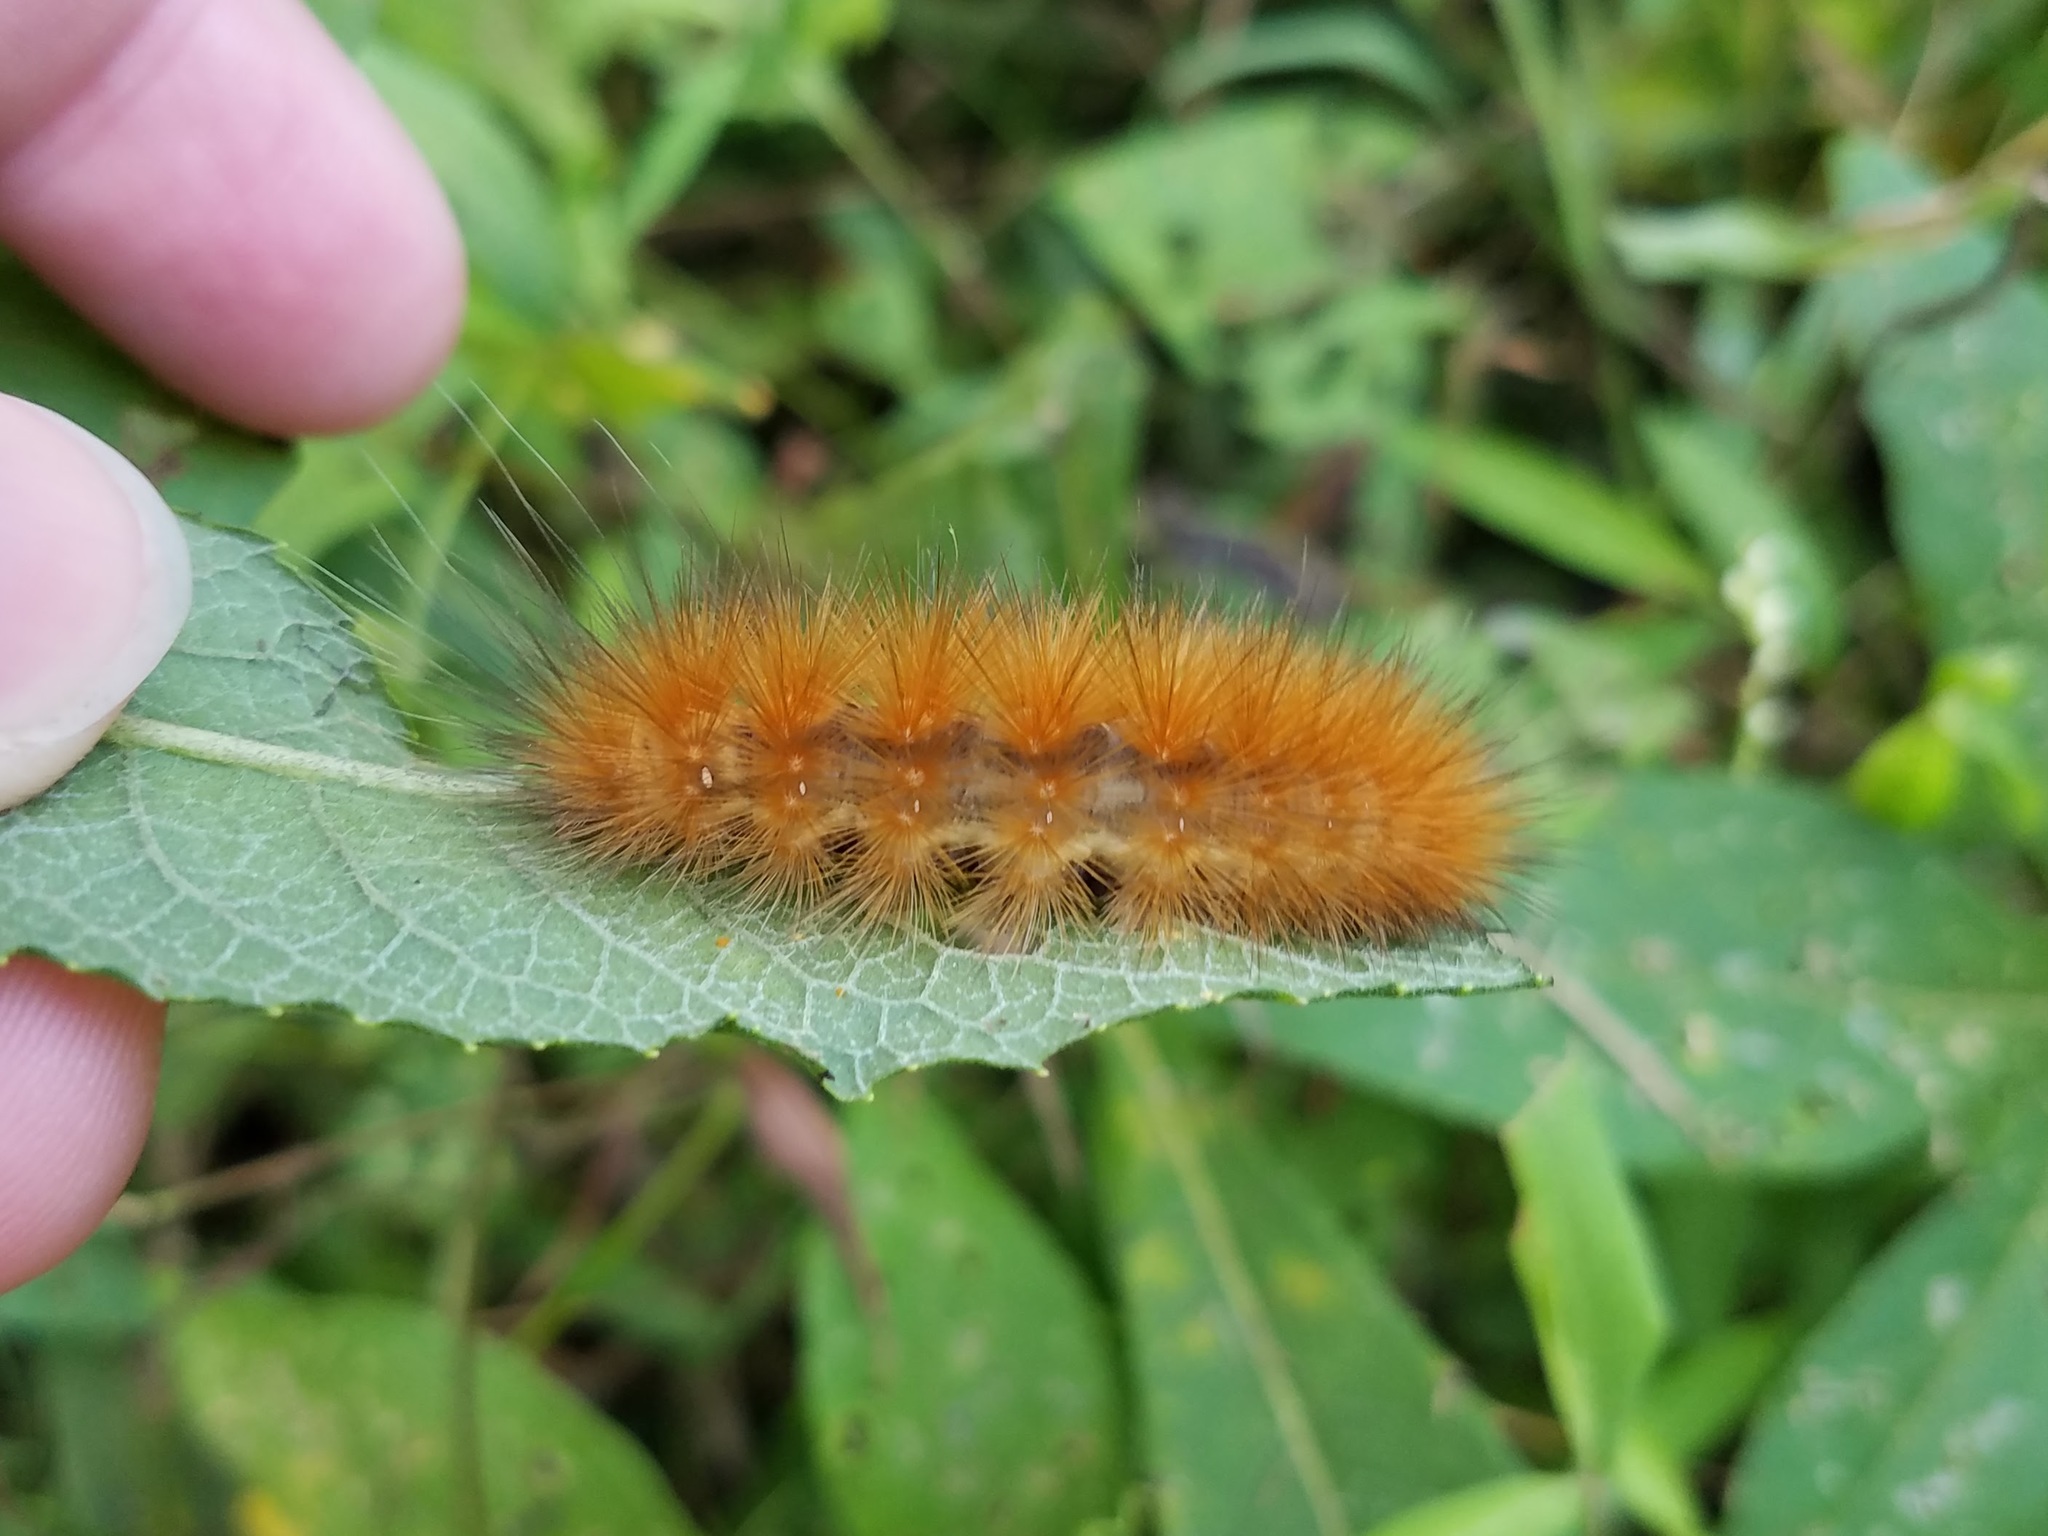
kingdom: Animalia
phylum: Arthropoda
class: Insecta
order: Lepidoptera
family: Erebidae
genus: Spilosoma
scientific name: Spilosoma virginica
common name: Virginia tiger moth
